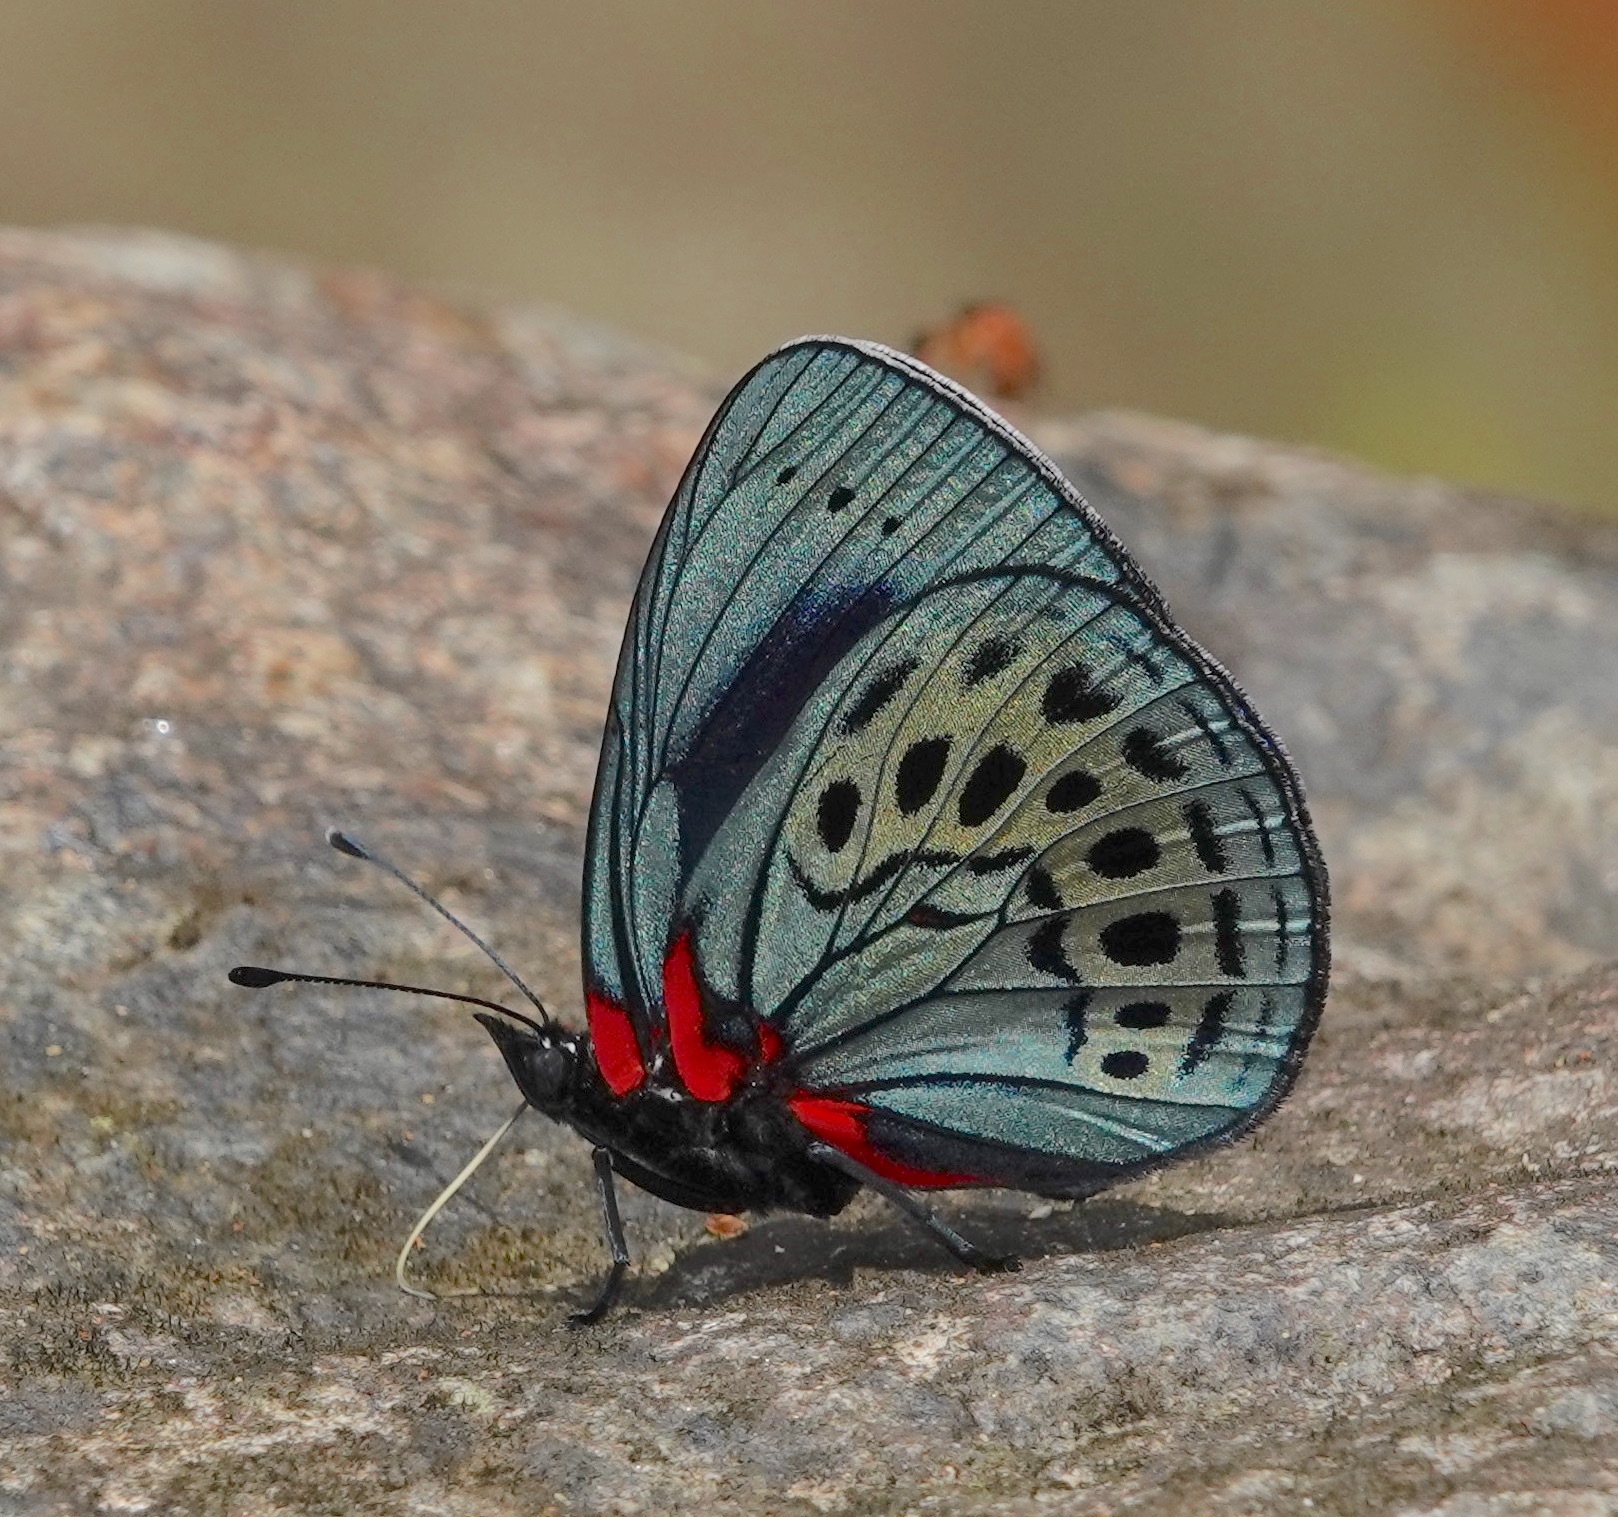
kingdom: Animalia
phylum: Arthropoda
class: Insecta
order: Lepidoptera
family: Nymphalidae
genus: Asterope
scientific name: Asterope leprieuri
